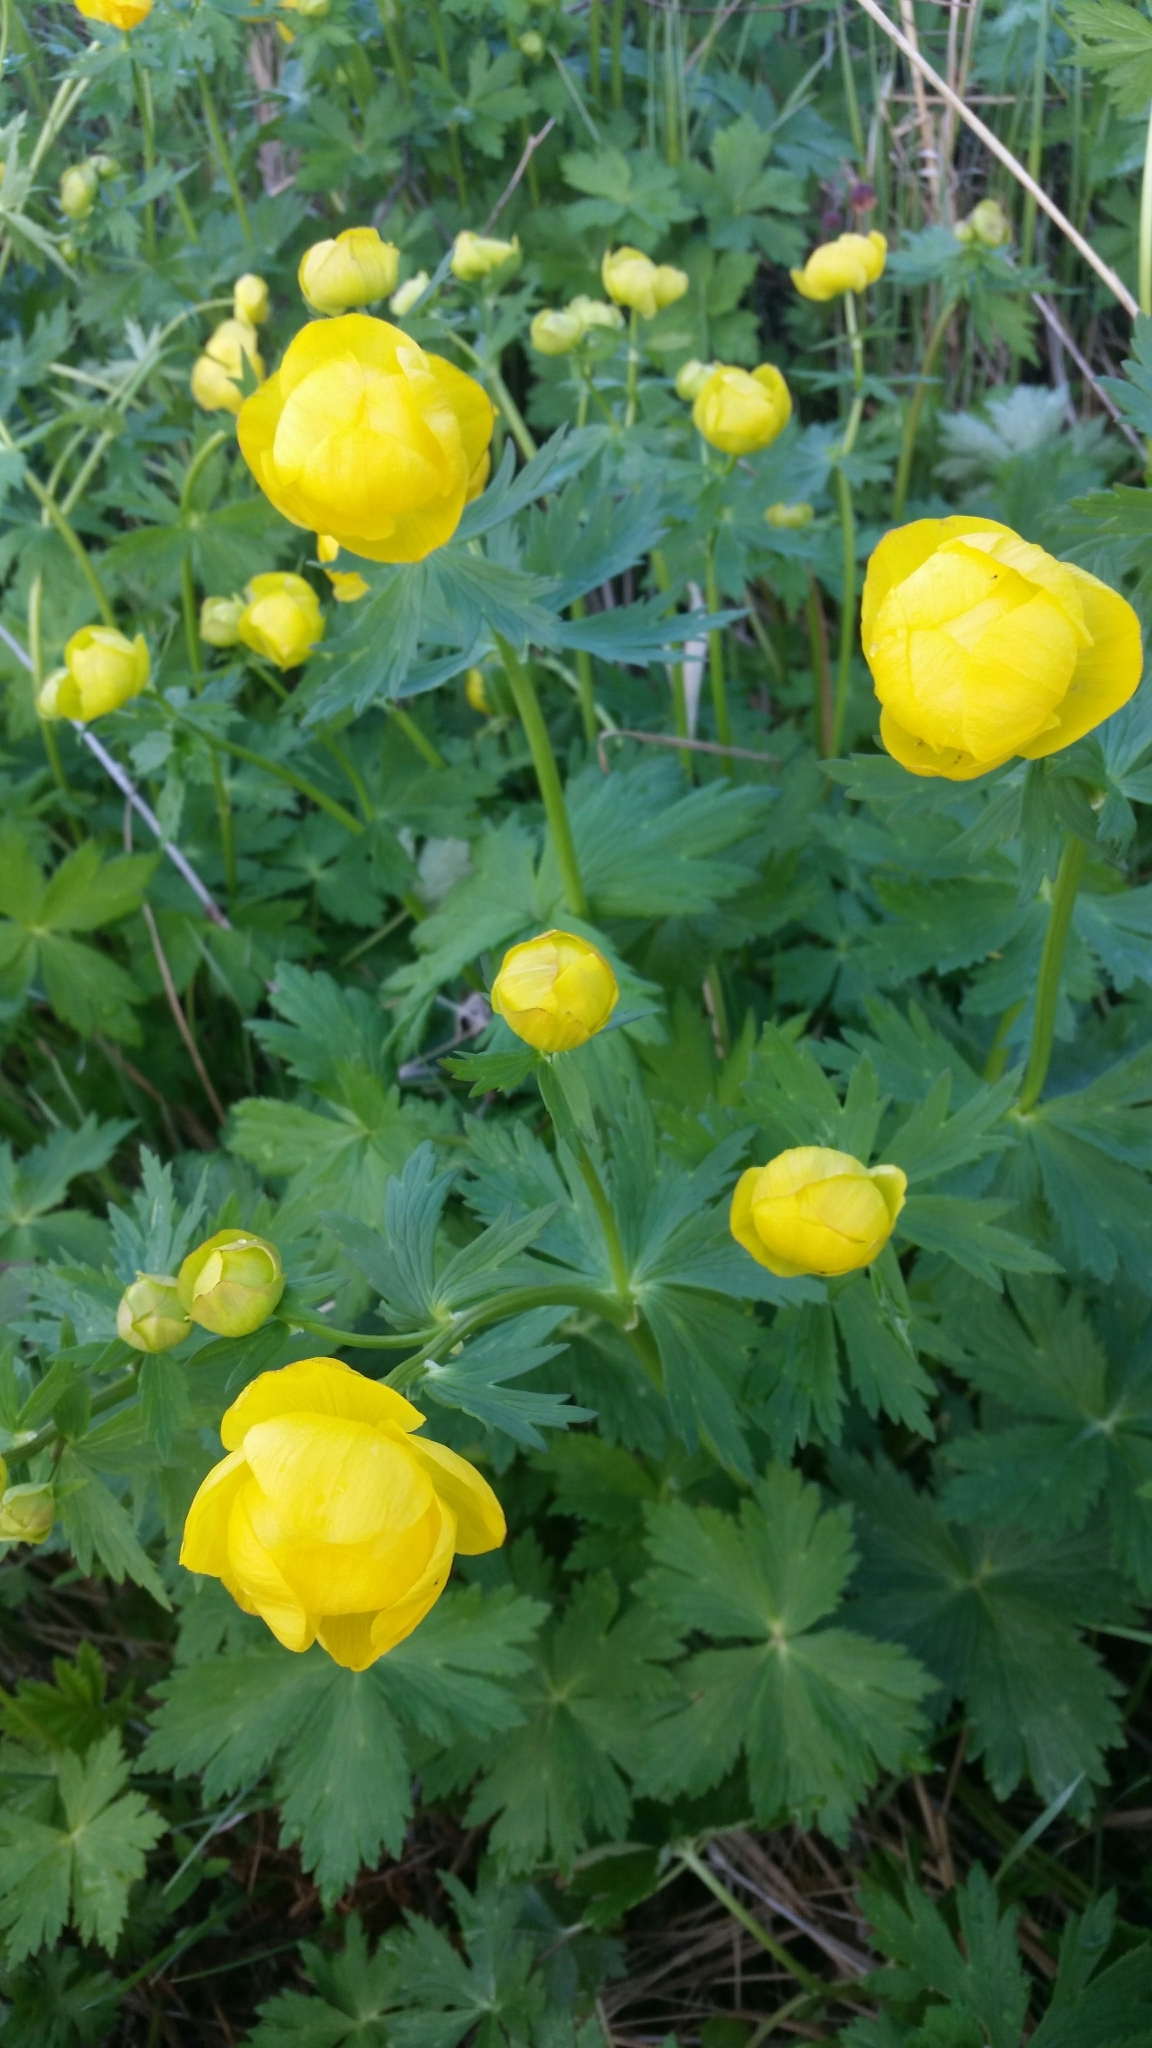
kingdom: Plantae
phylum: Tracheophyta
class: Magnoliopsida
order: Ranunculales
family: Ranunculaceae
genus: Trollius
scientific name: Trollius europaeus
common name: European globeflower
